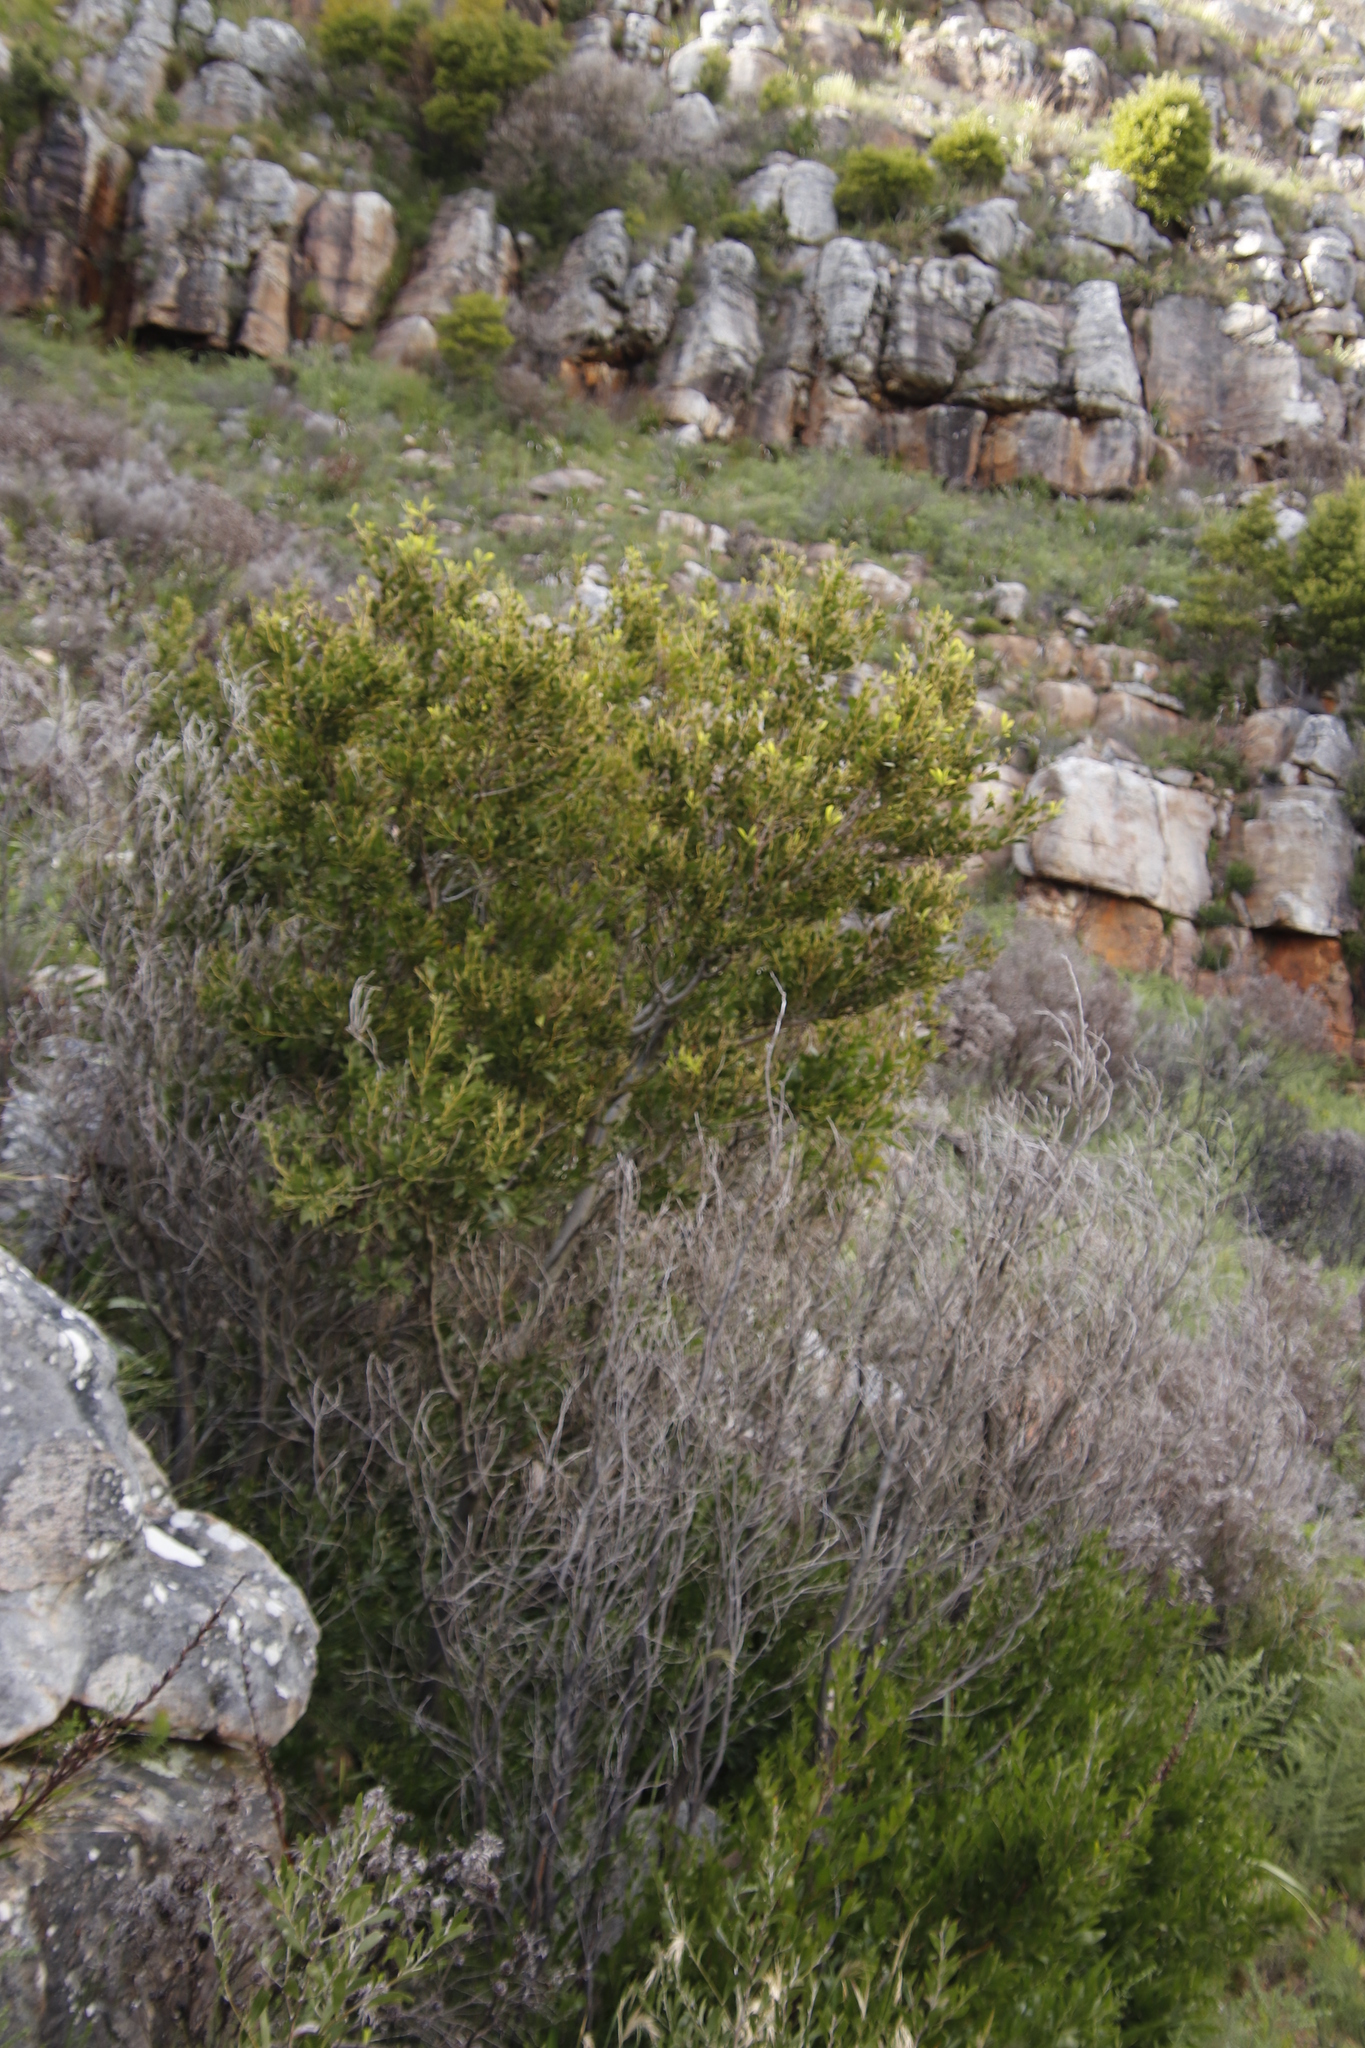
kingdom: Plantae
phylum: Tracheophyta
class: Magnoliopsida
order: Fabales
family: Fabaceae
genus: Acacia
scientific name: Acacia melanoxylon
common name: Blackwood
